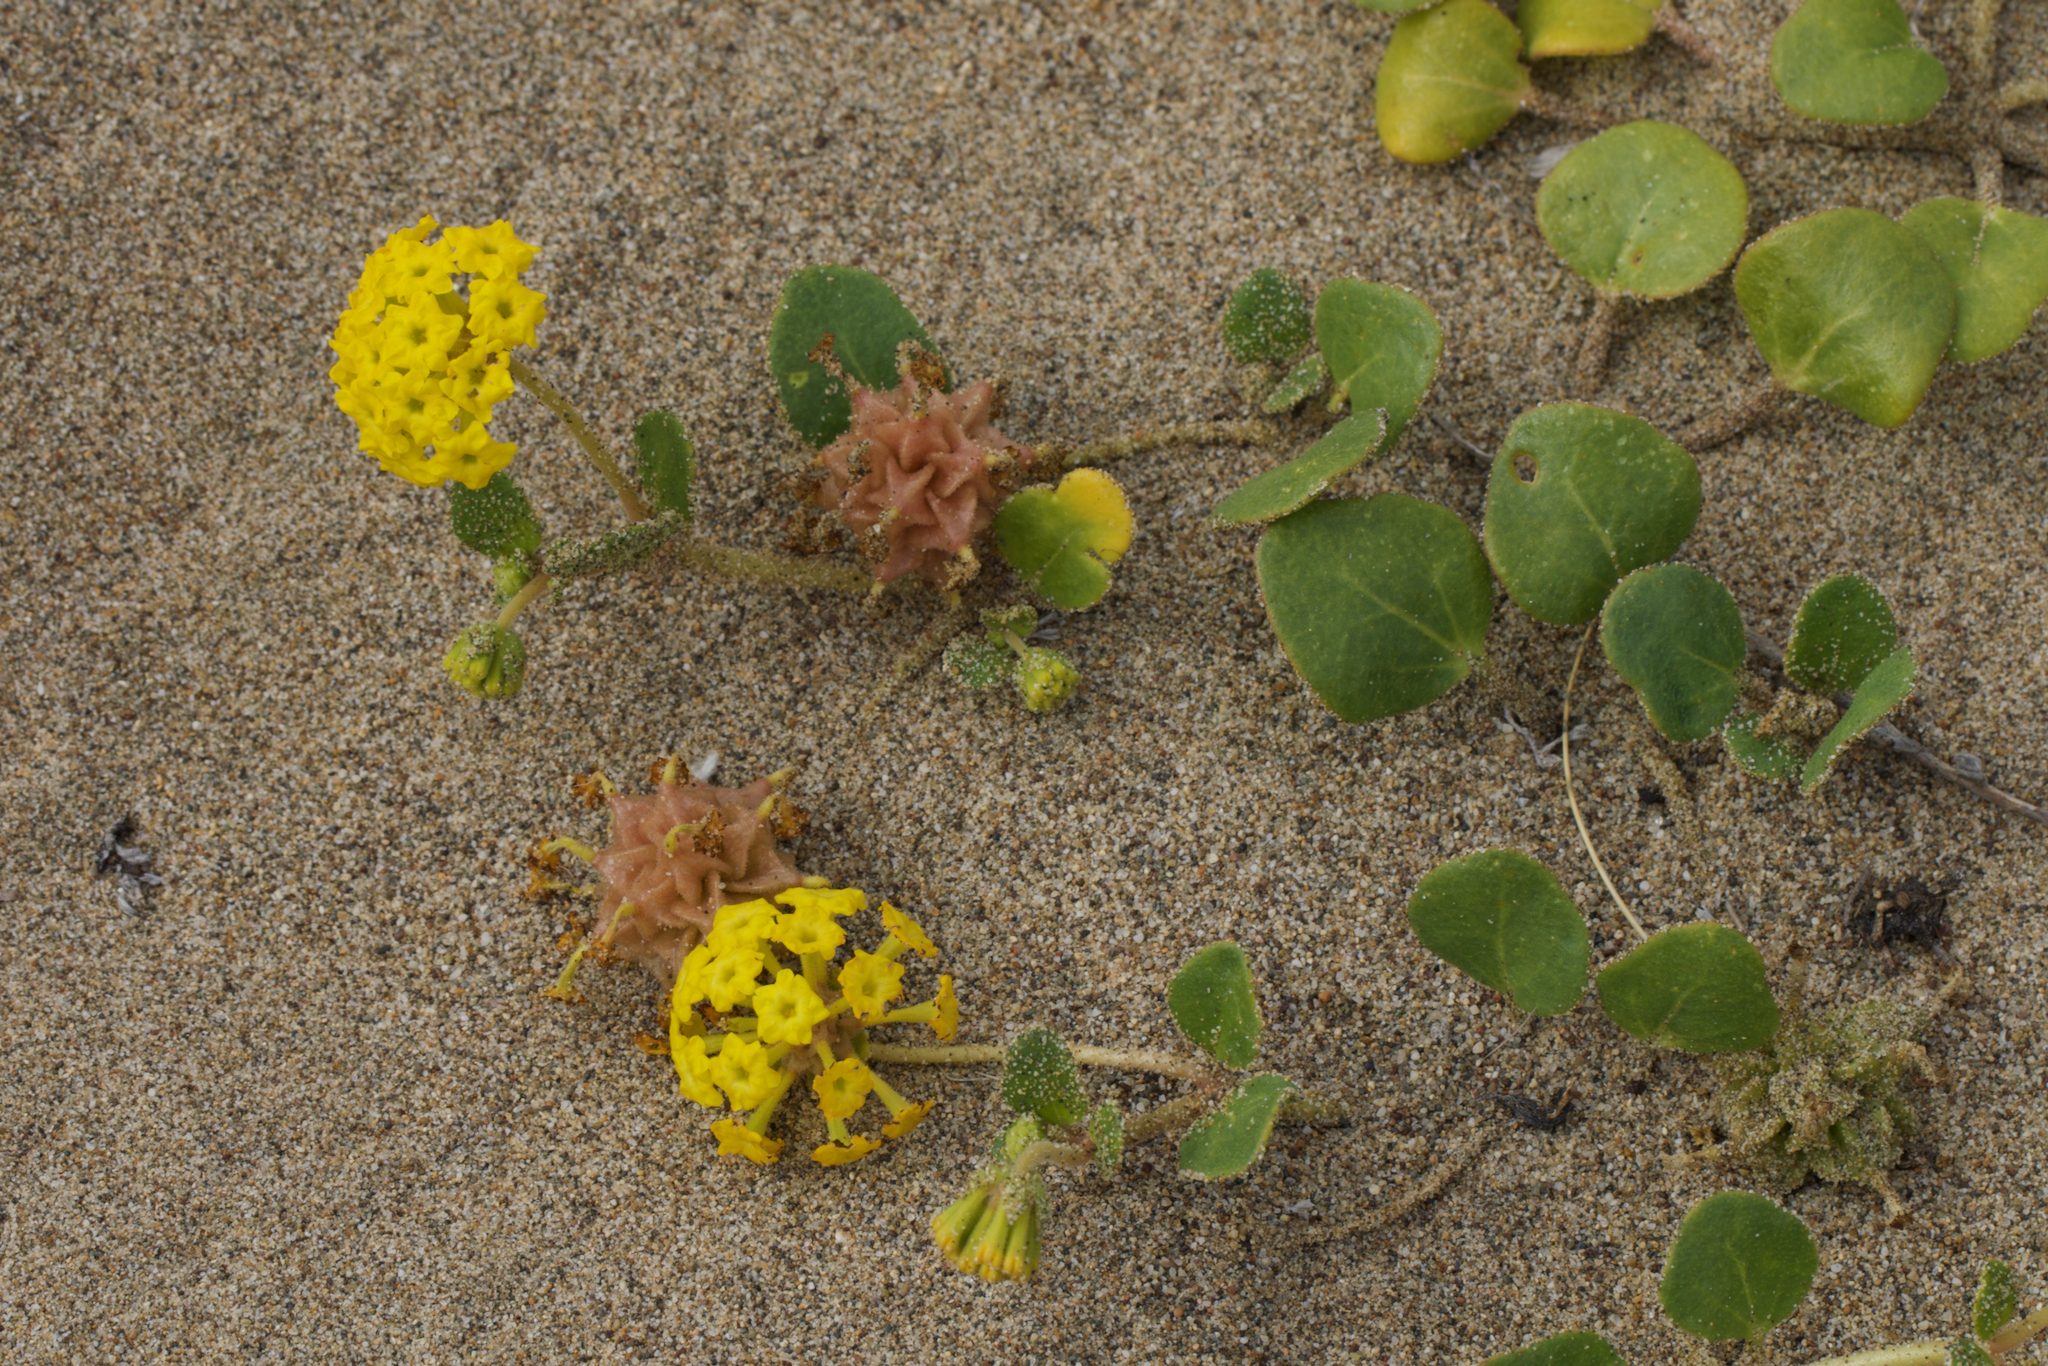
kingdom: Plantae
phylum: Tracheophyta
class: Magnoliopsida
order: Caryophyllales
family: Nyctaginaceae
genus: Abronia
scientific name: Abronia latifolia
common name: Yellow sand-verbena
